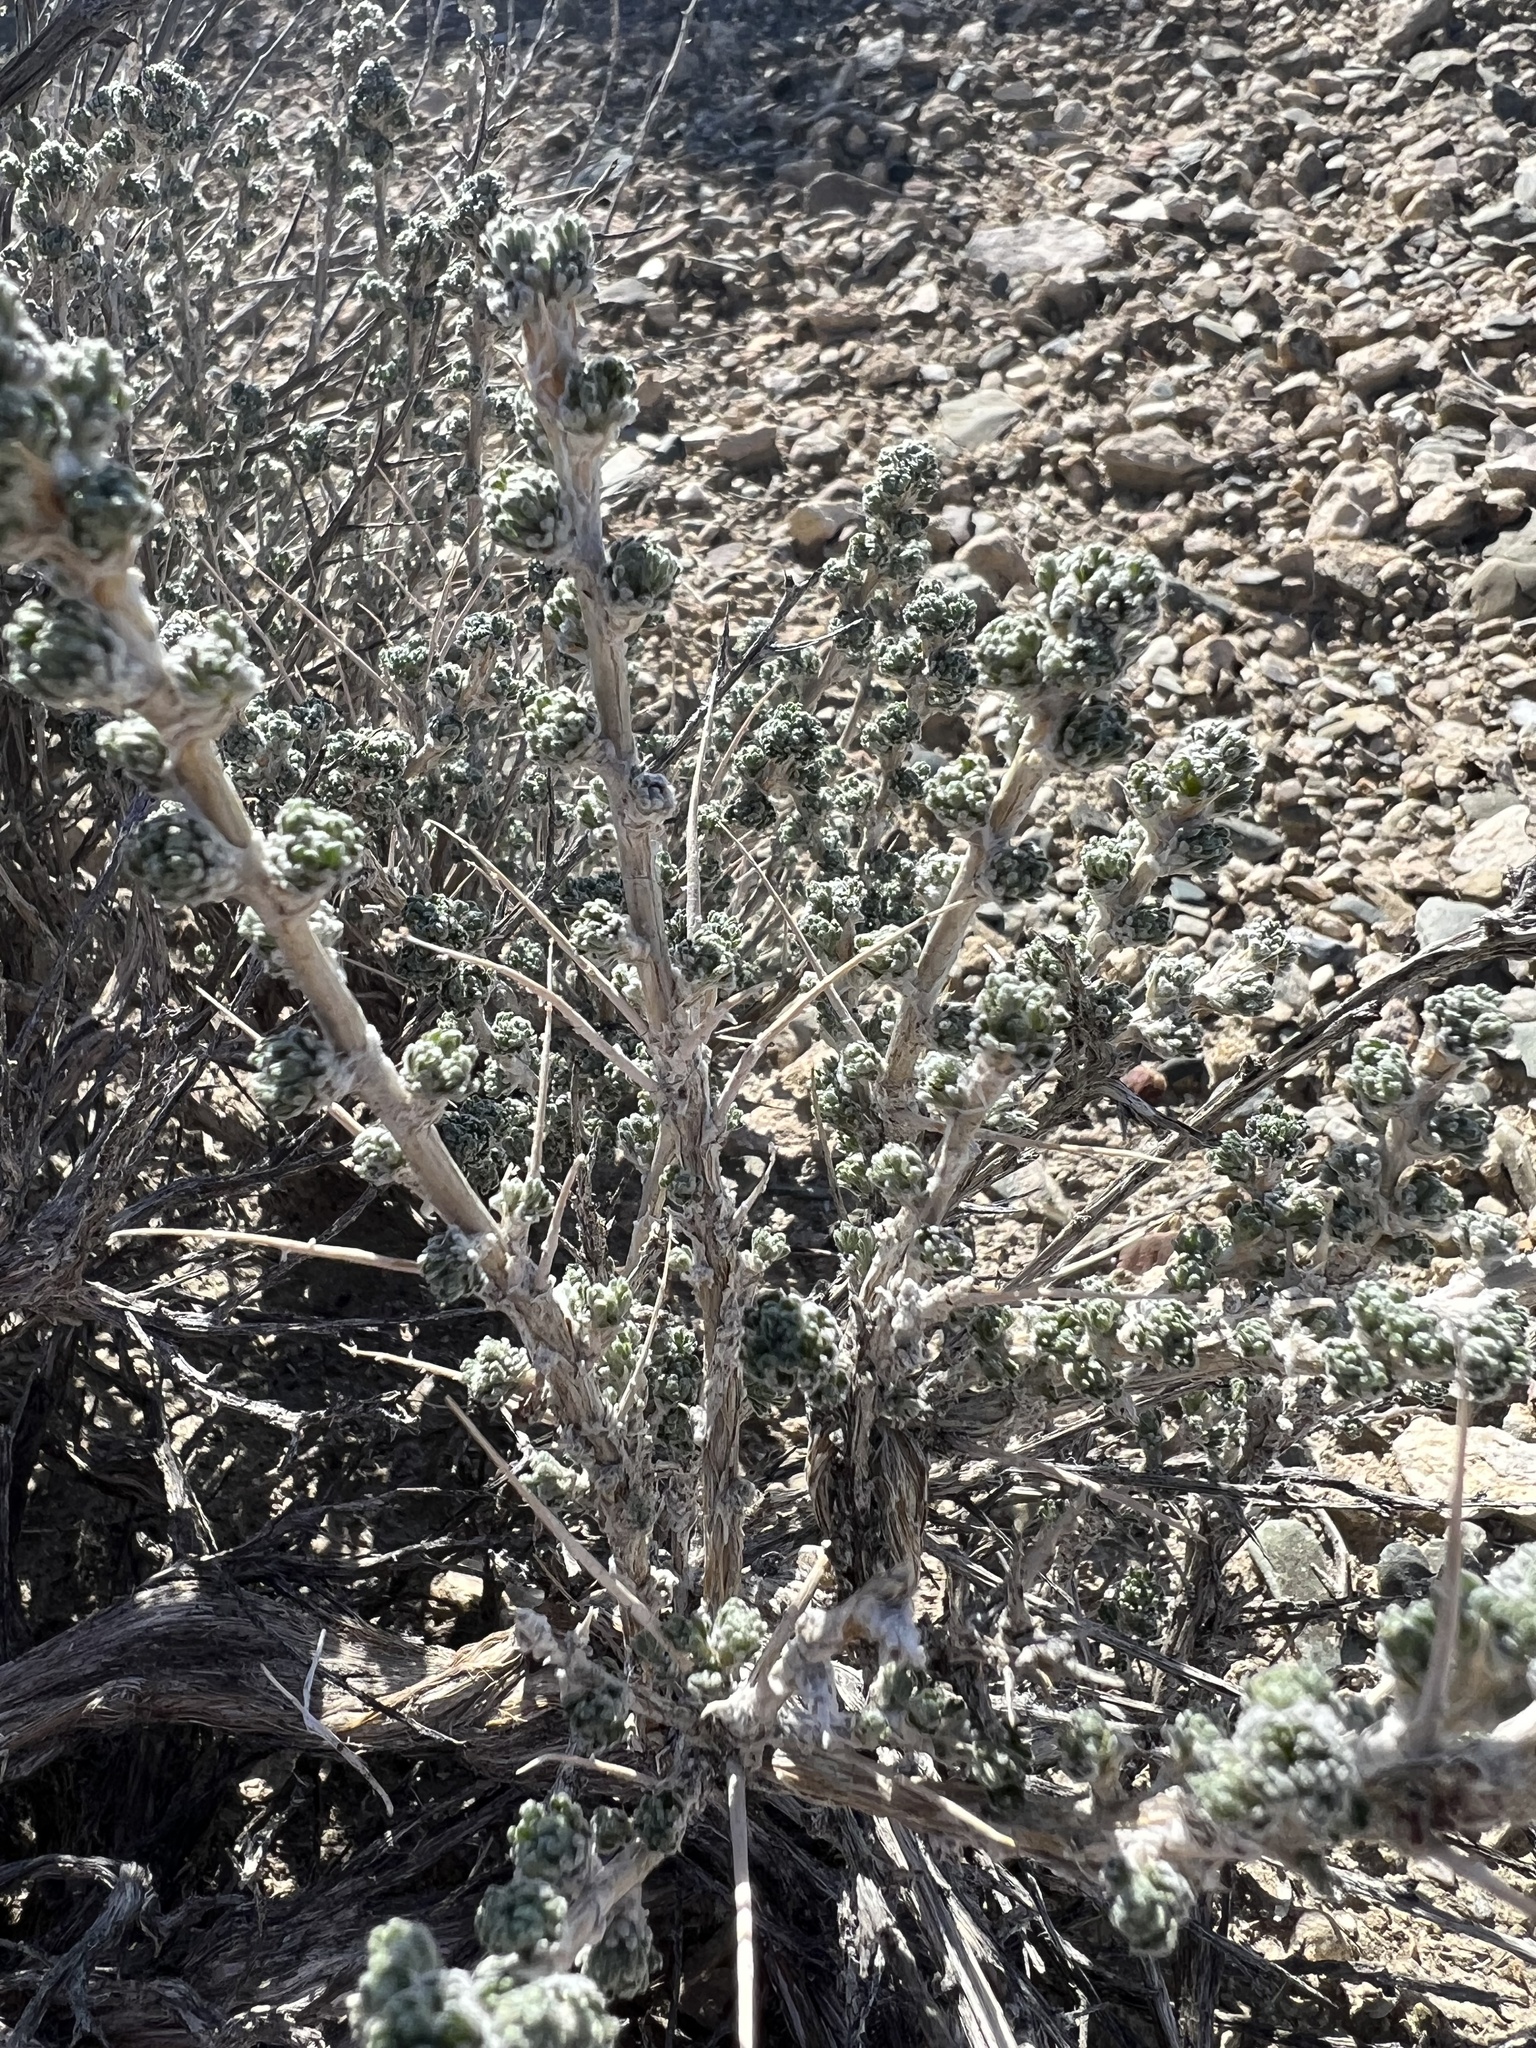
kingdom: Plantae
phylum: Tracheophyta
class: Magnoliopsida
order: Asterales
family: Asteraceae
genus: Artemisia
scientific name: Artemisia spinescens
